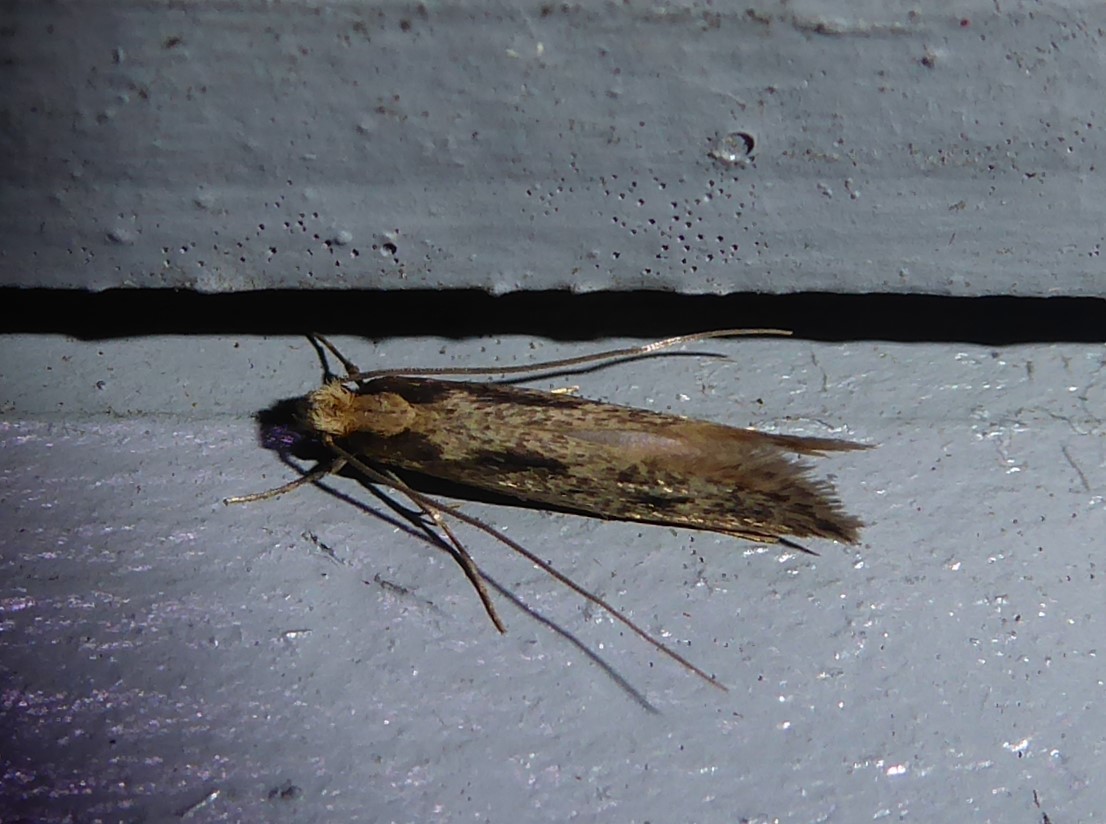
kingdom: Animalia
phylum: Arthropoda
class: Insecta
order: Lepidoptera
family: Tineidae
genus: Tinea
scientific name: Tinea pallescentella
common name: Large pale clothes moth
